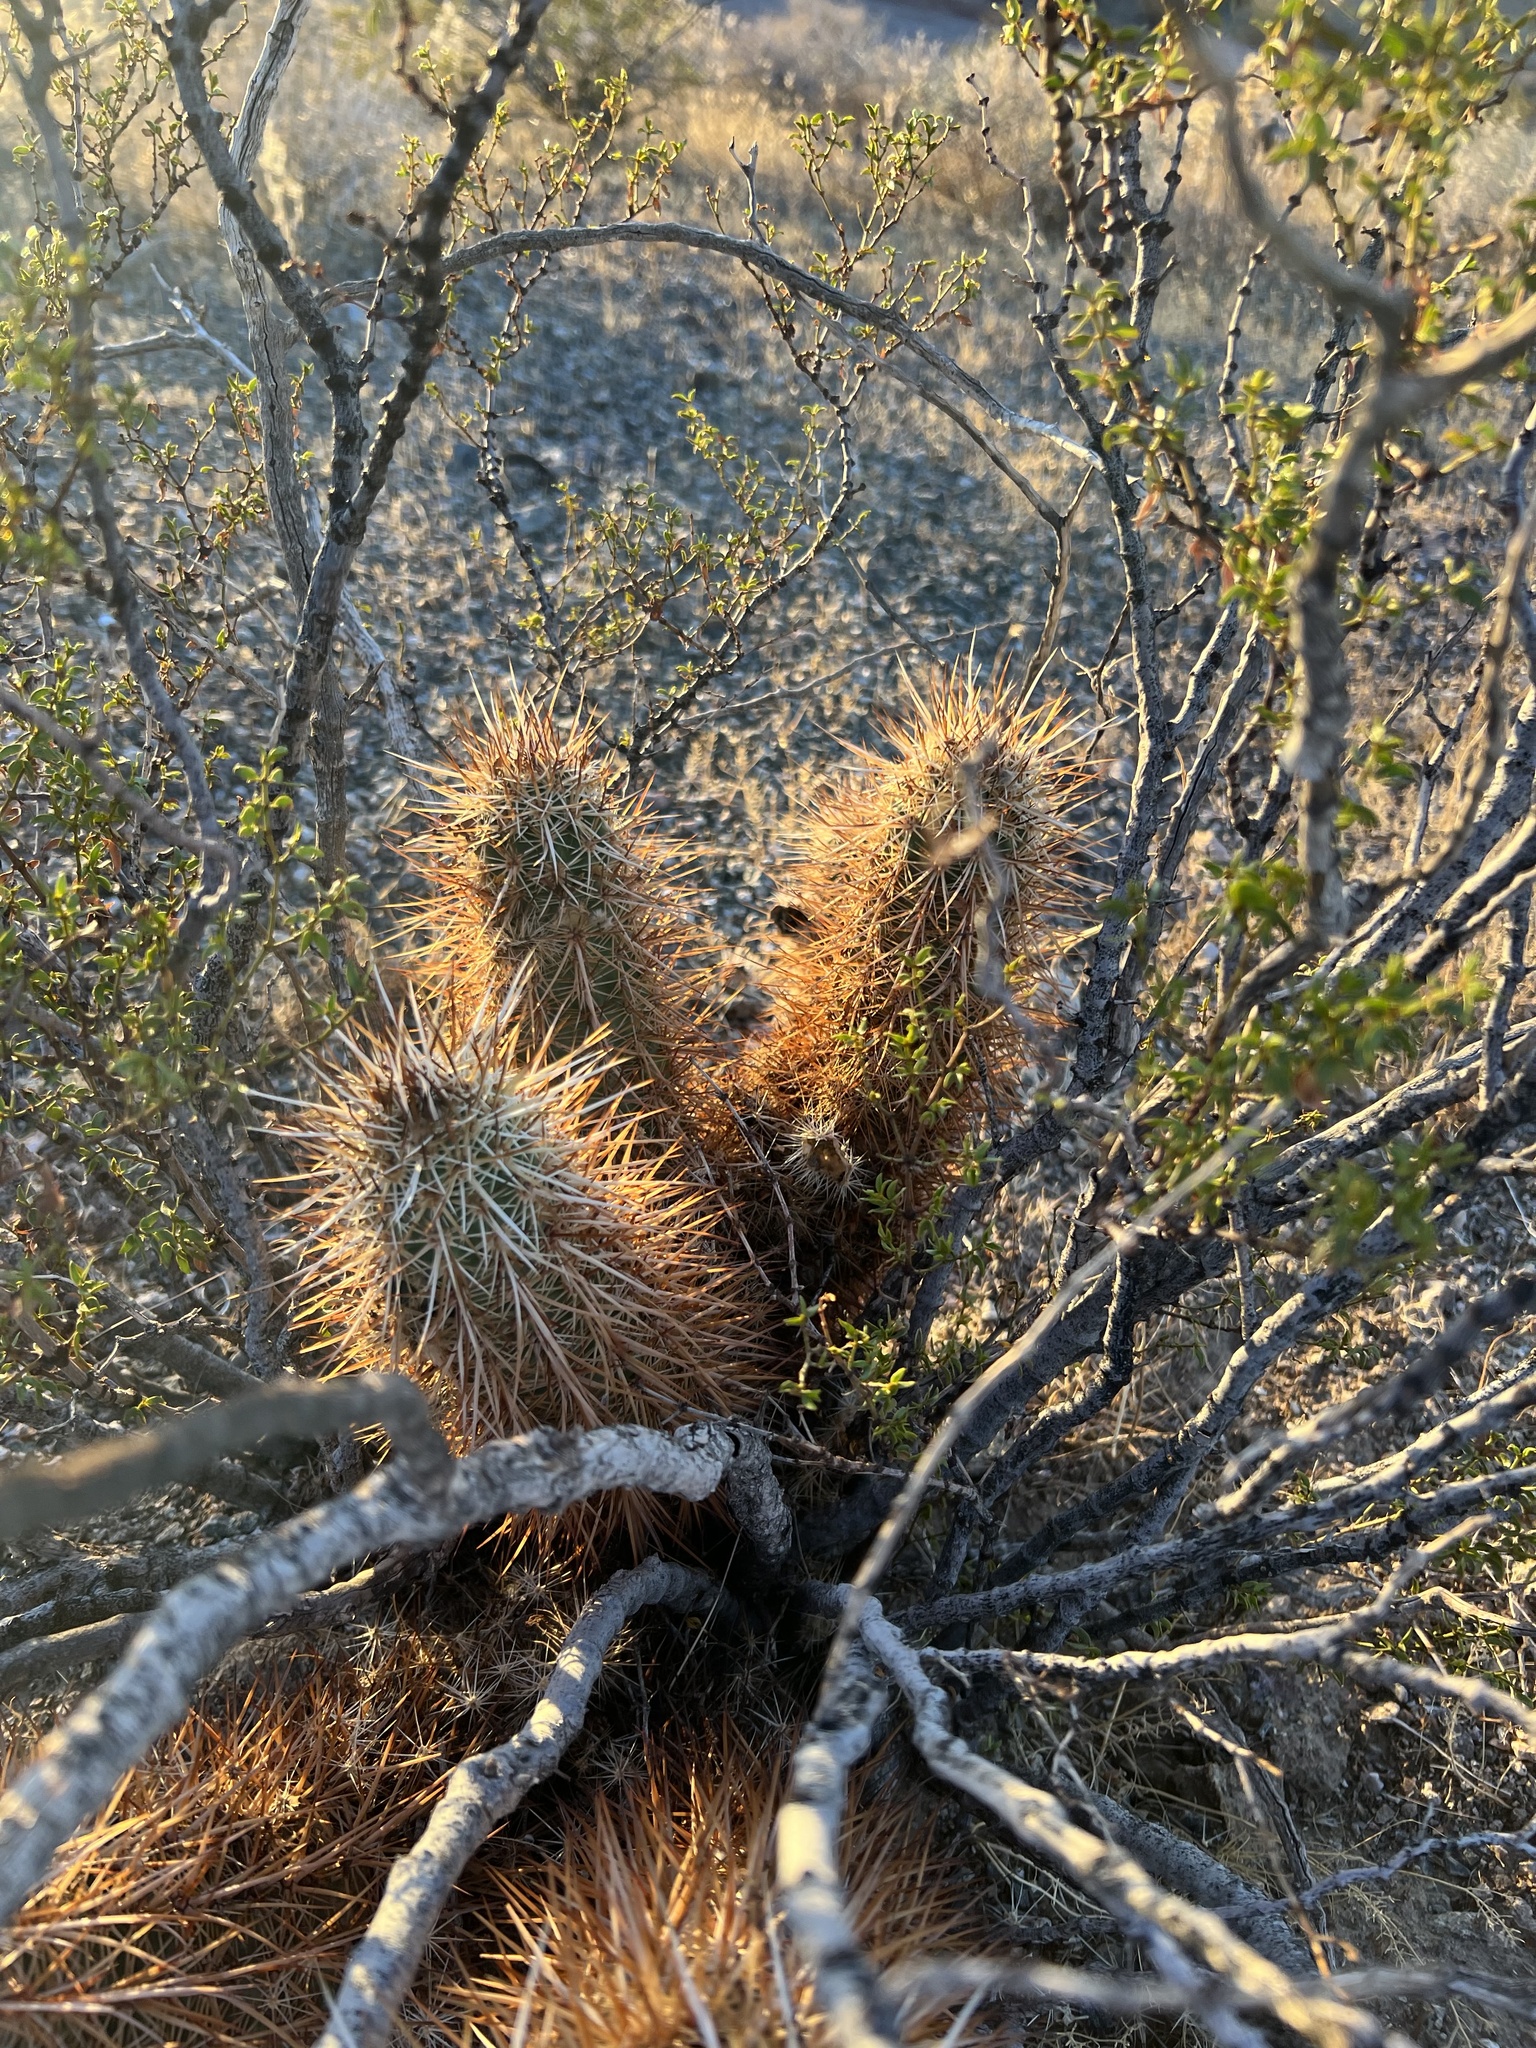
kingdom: Plantae
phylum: Tracheophyta
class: Magnoliopsida
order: Caryophyllales
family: Cactaceae
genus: Echinocereus
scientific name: Echinocereus engelmannii
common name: Engelmann's hedgehog cactus
